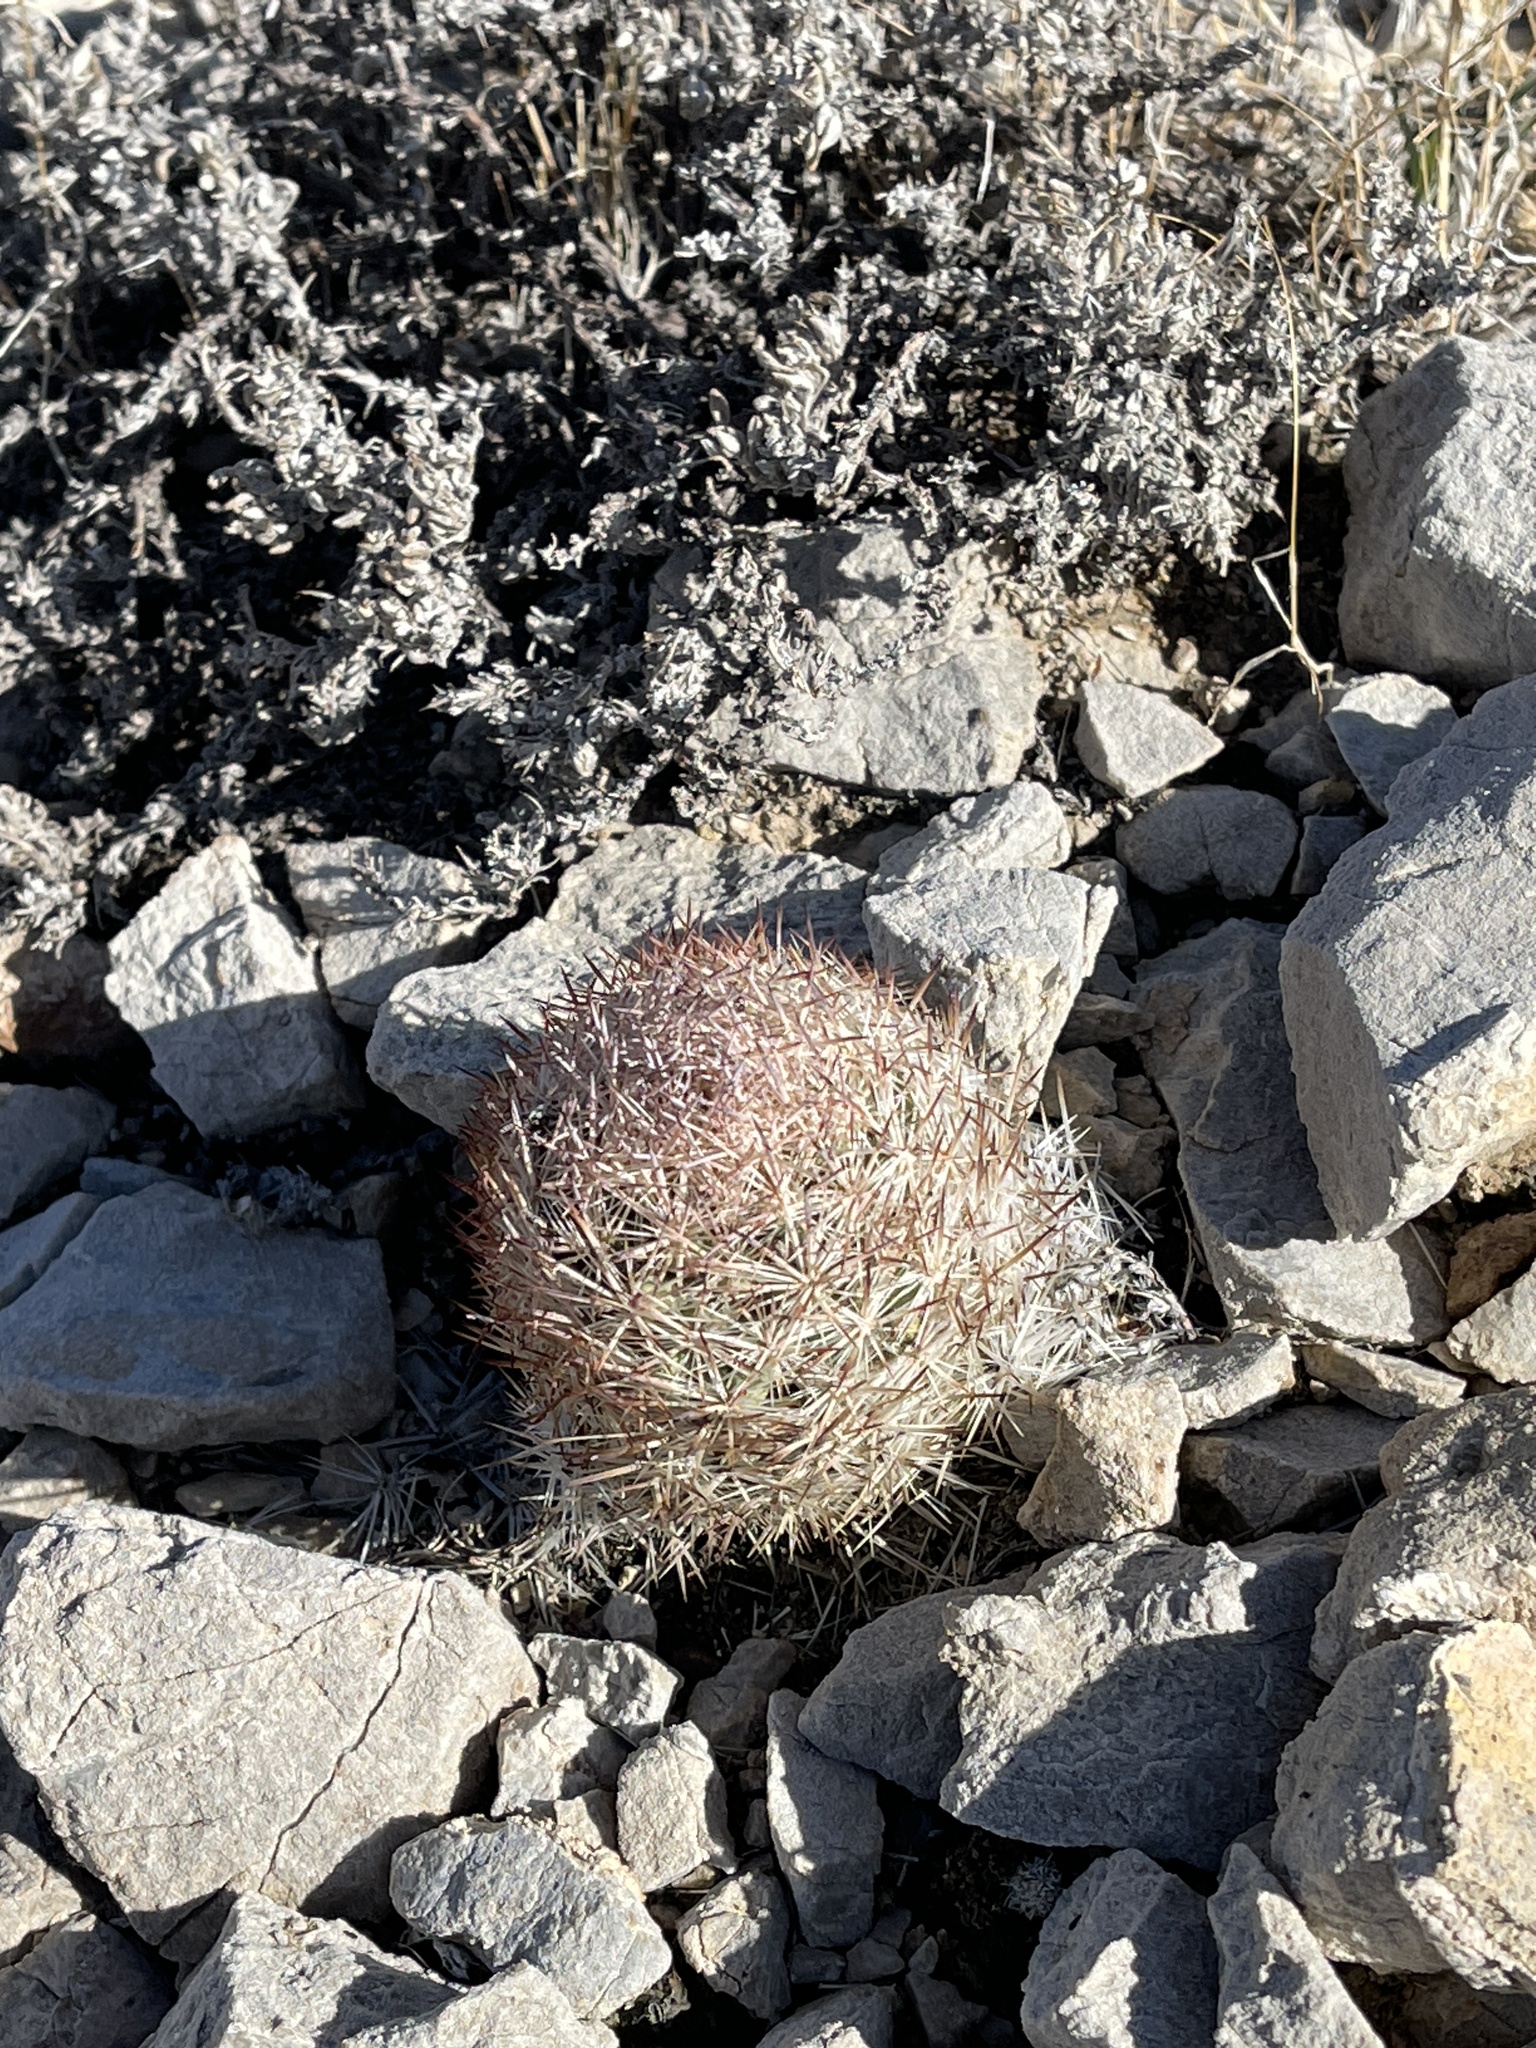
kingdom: Plantae
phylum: Tracheophyta
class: Magnoliopsida
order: Caryophyllales
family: Cactaceae
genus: Pelecyphora
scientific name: Pelecyphora dasyacantha
